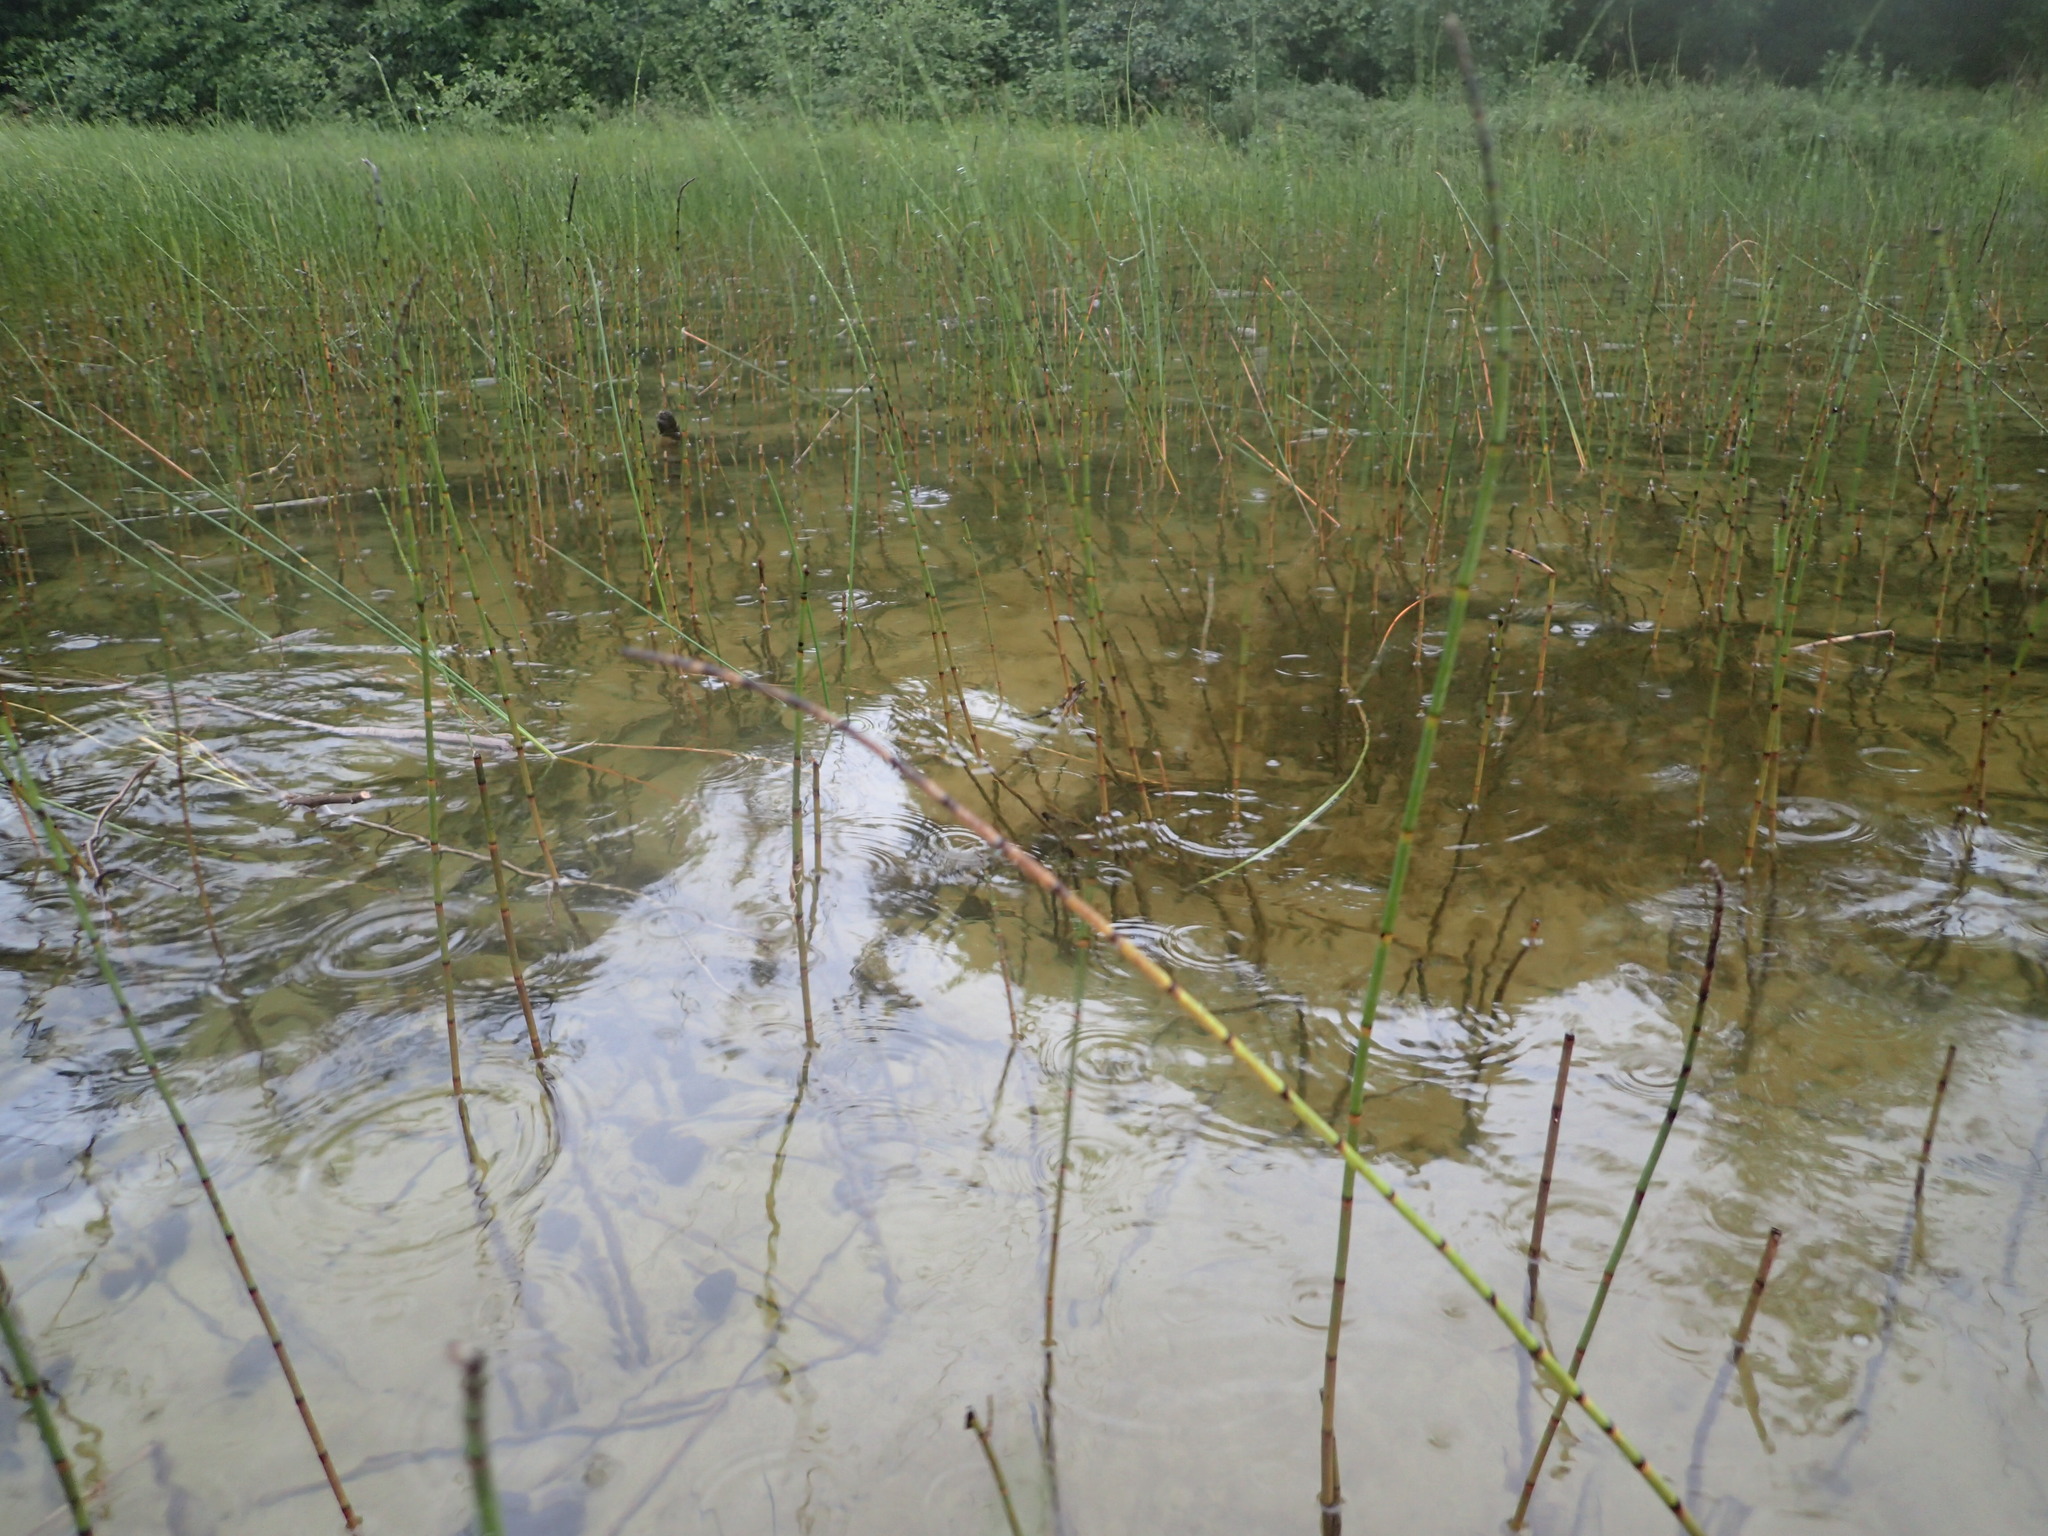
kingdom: Plantae
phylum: Tracheophyta
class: Polypodiopsida
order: Equisetales
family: Equisetaceae
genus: Equisetum
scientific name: Equisetum fluviatile
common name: Water horsetail
